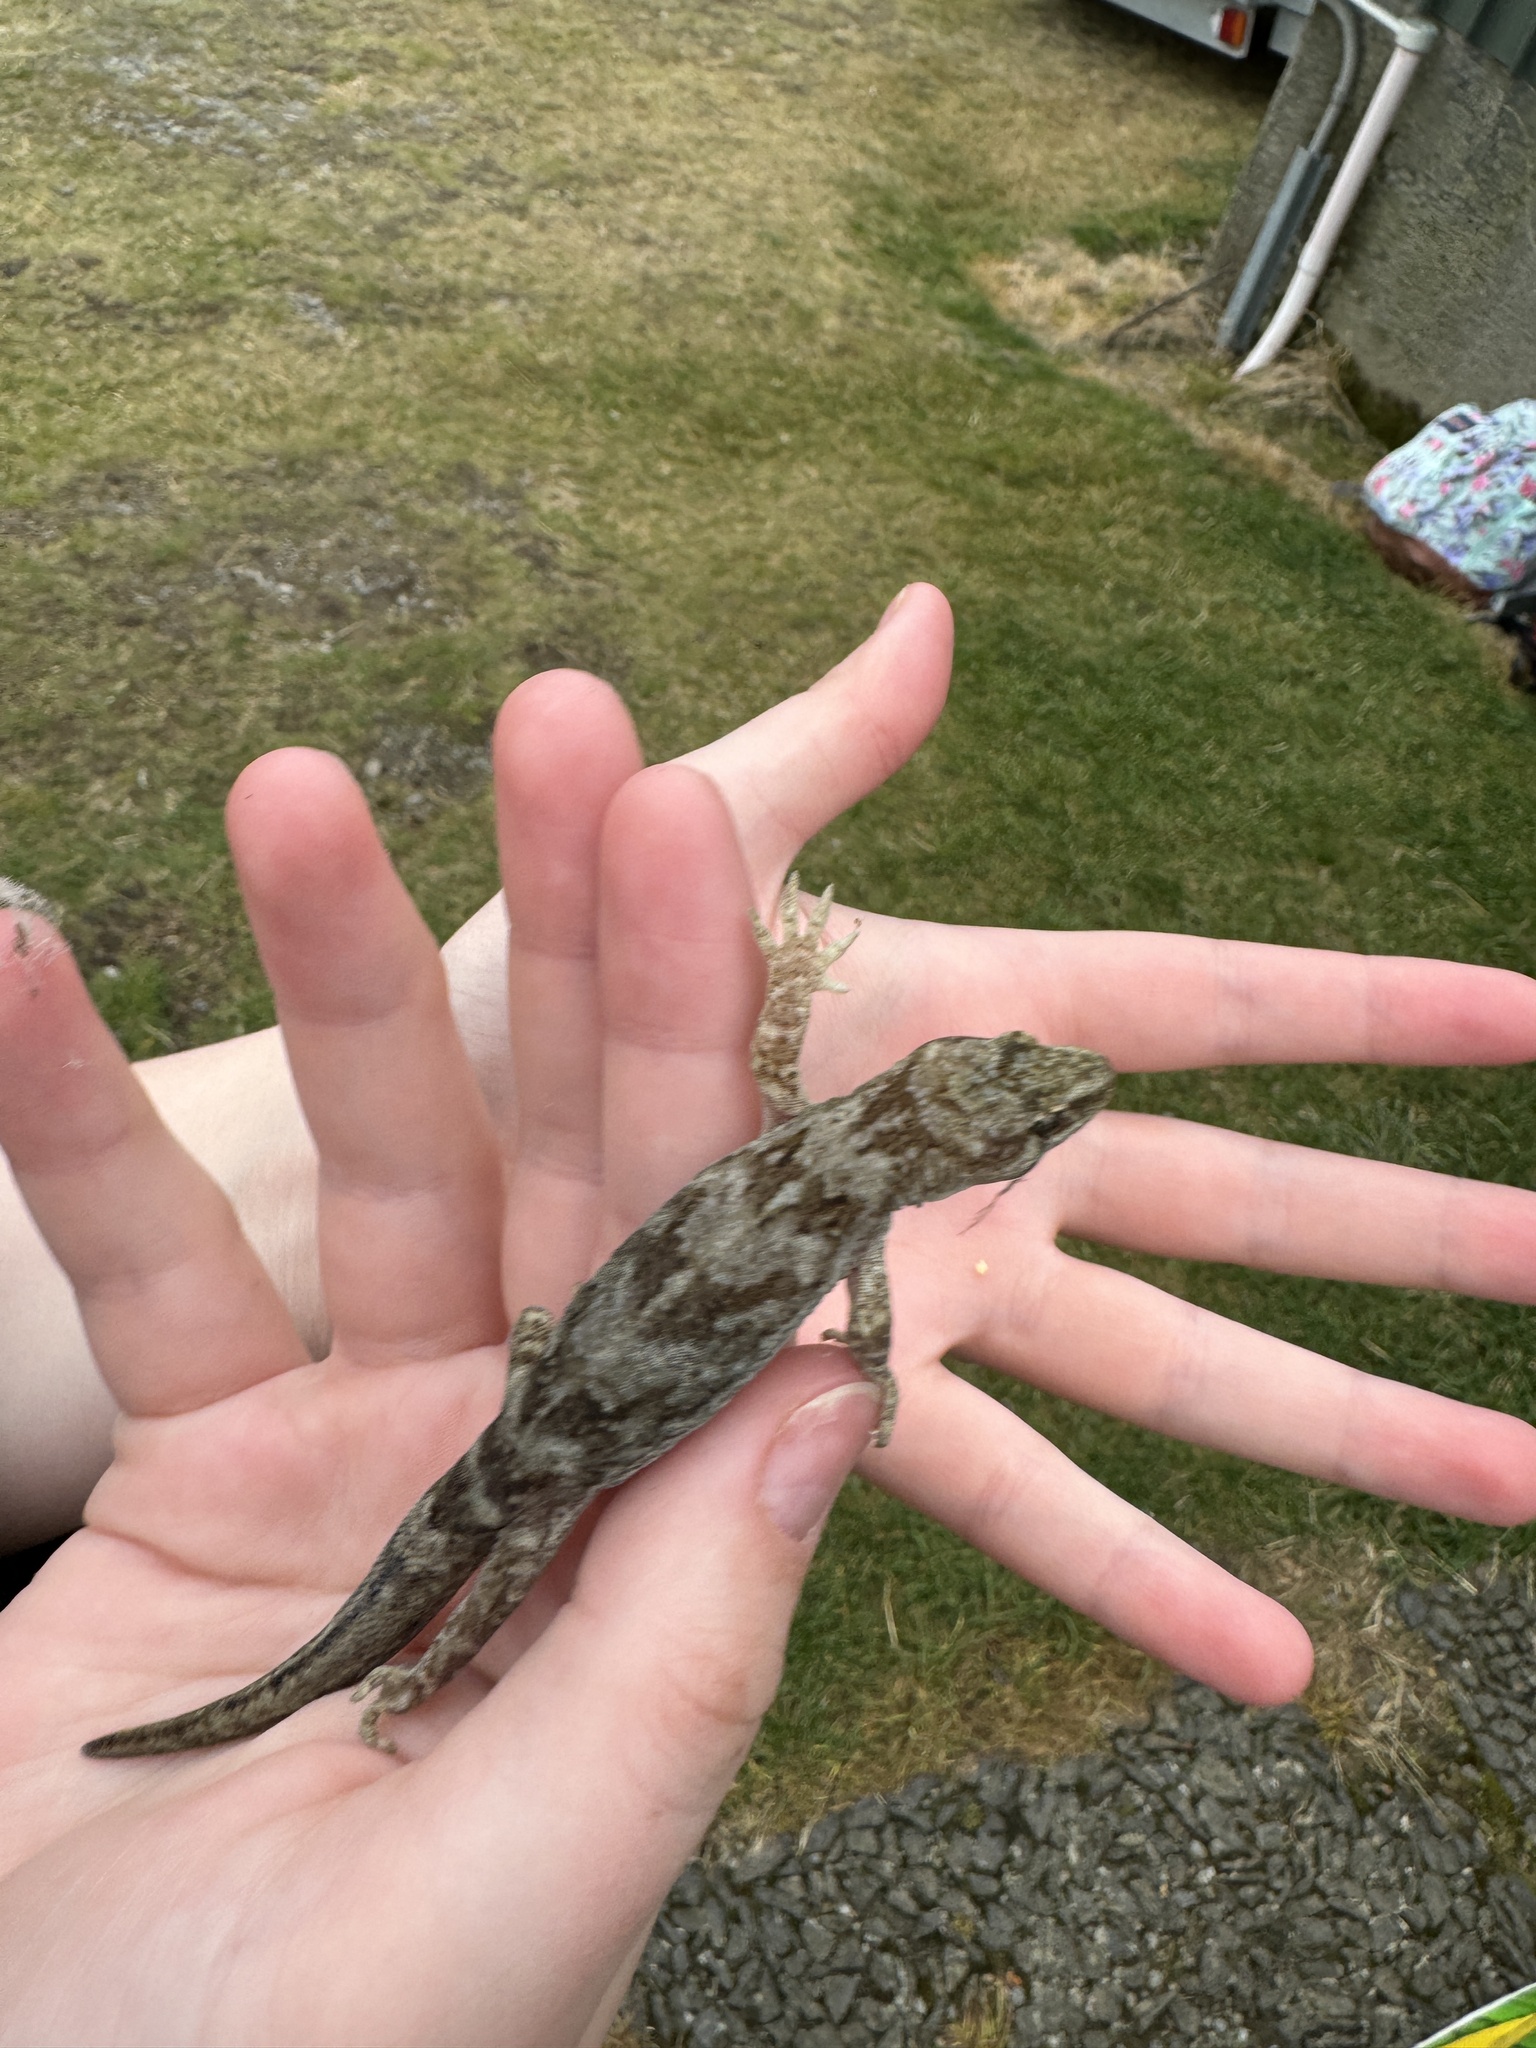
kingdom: Animalia
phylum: Chordata
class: Squamata
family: Diplodactylidae
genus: Woodworthia
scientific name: Woodworthia
